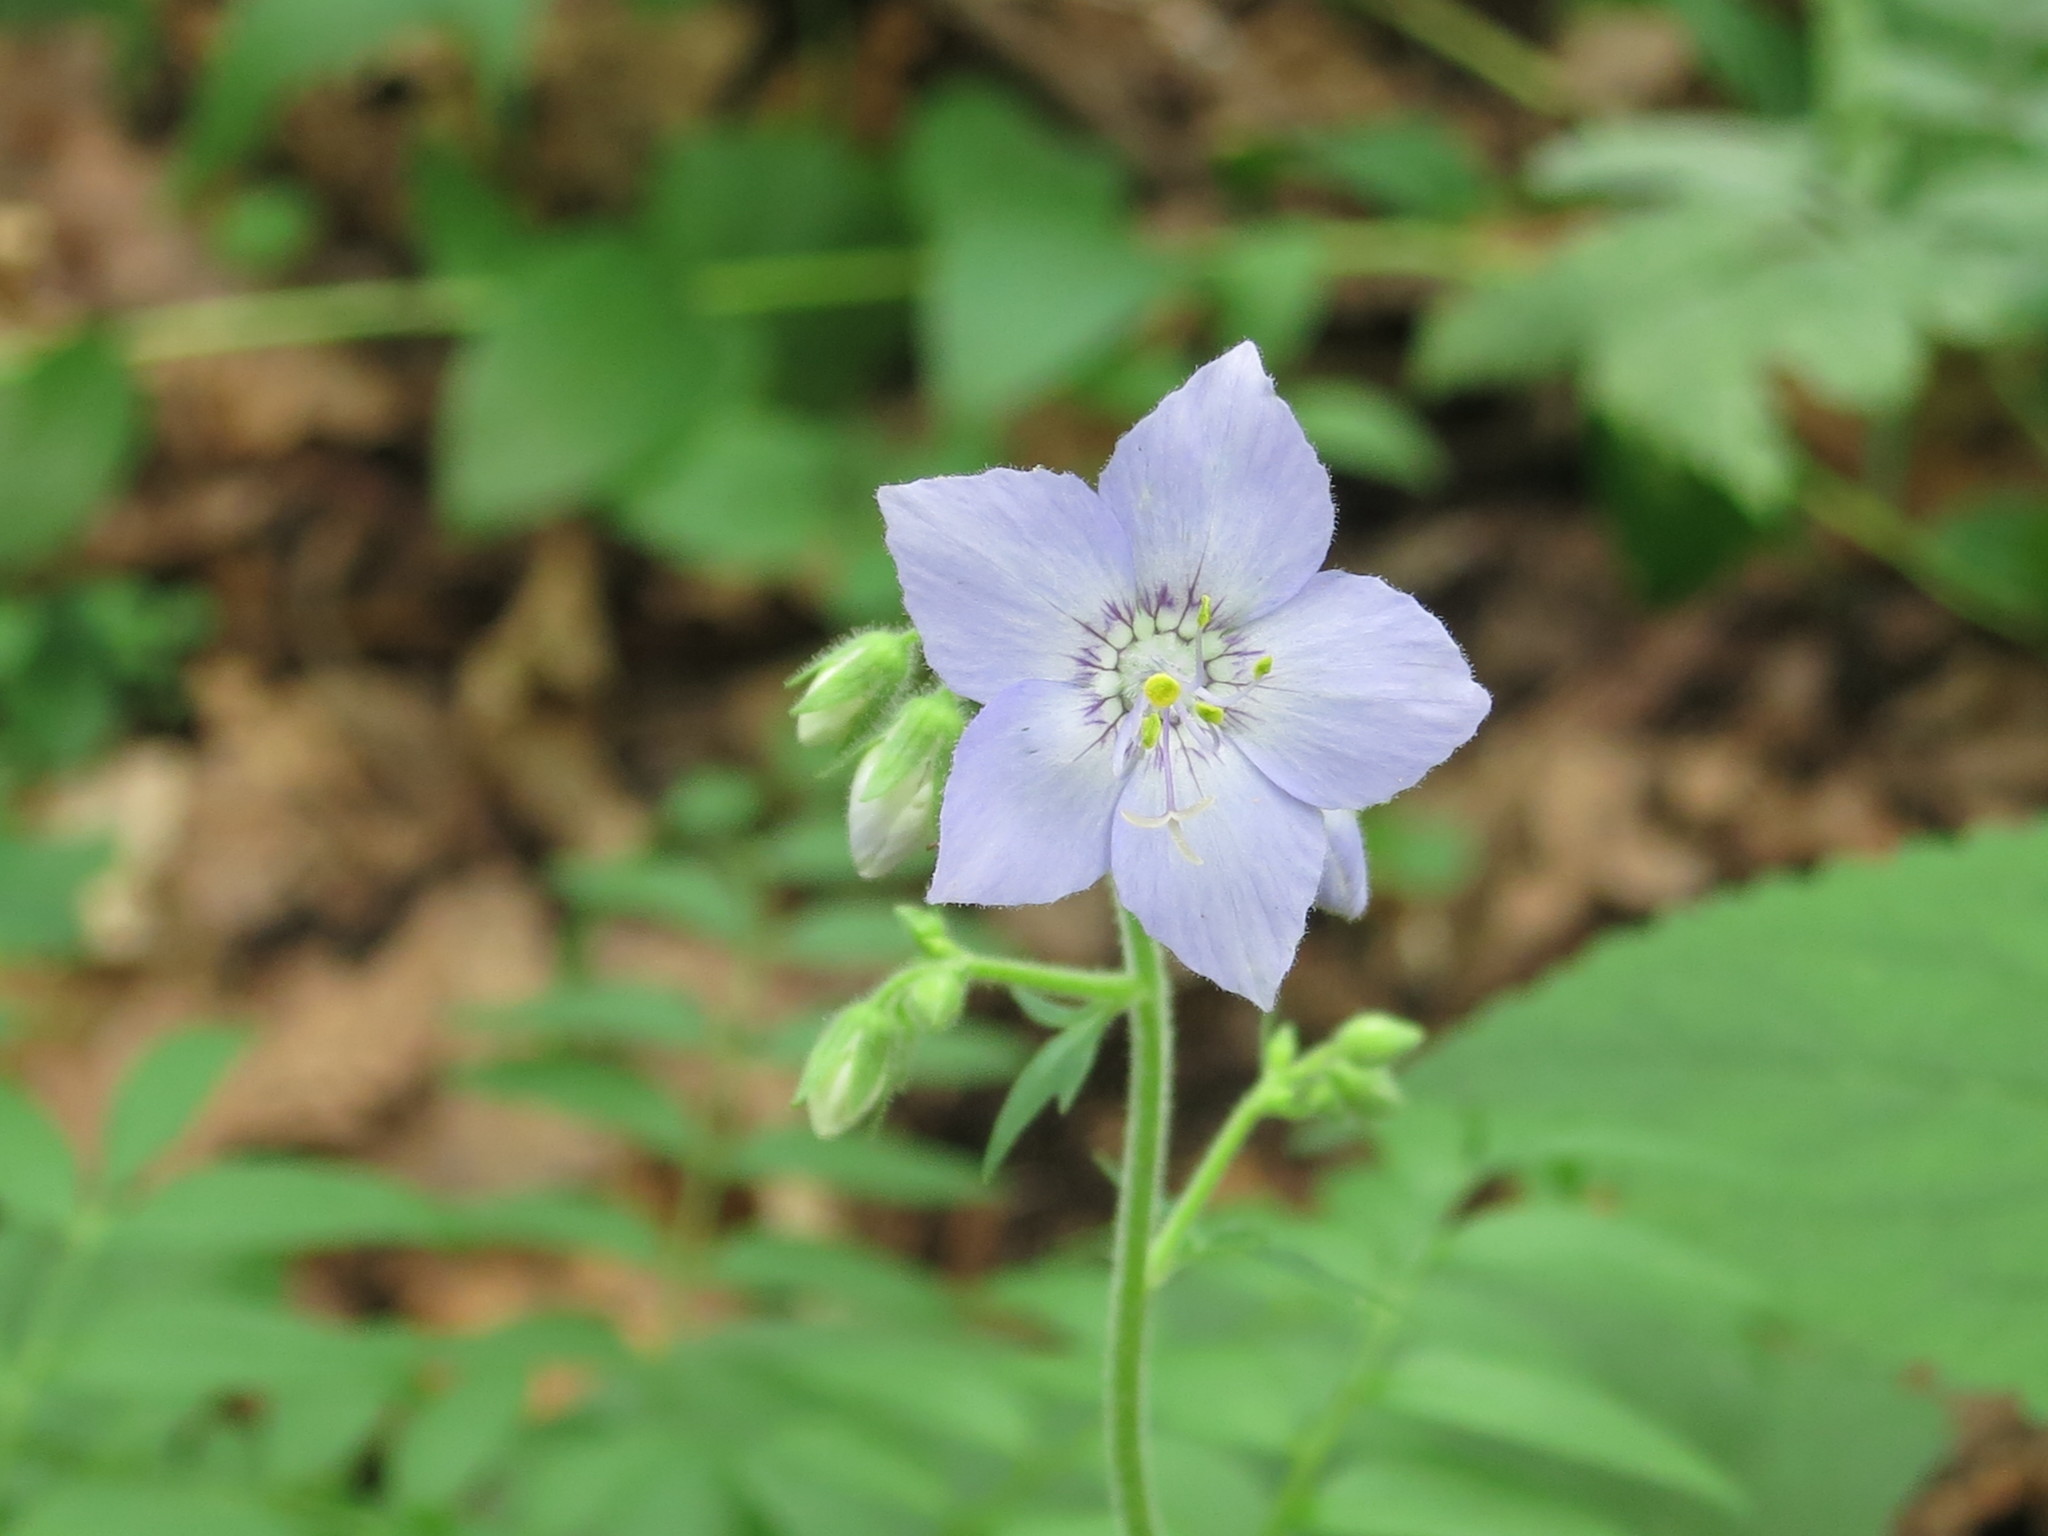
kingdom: Plantae
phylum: Tracheophyta
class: Magnoliopsida
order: Ericales
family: Polemoniaceae
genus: Polemonium
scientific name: Polemonium acutiflorum
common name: Tall jacob's-ladder
